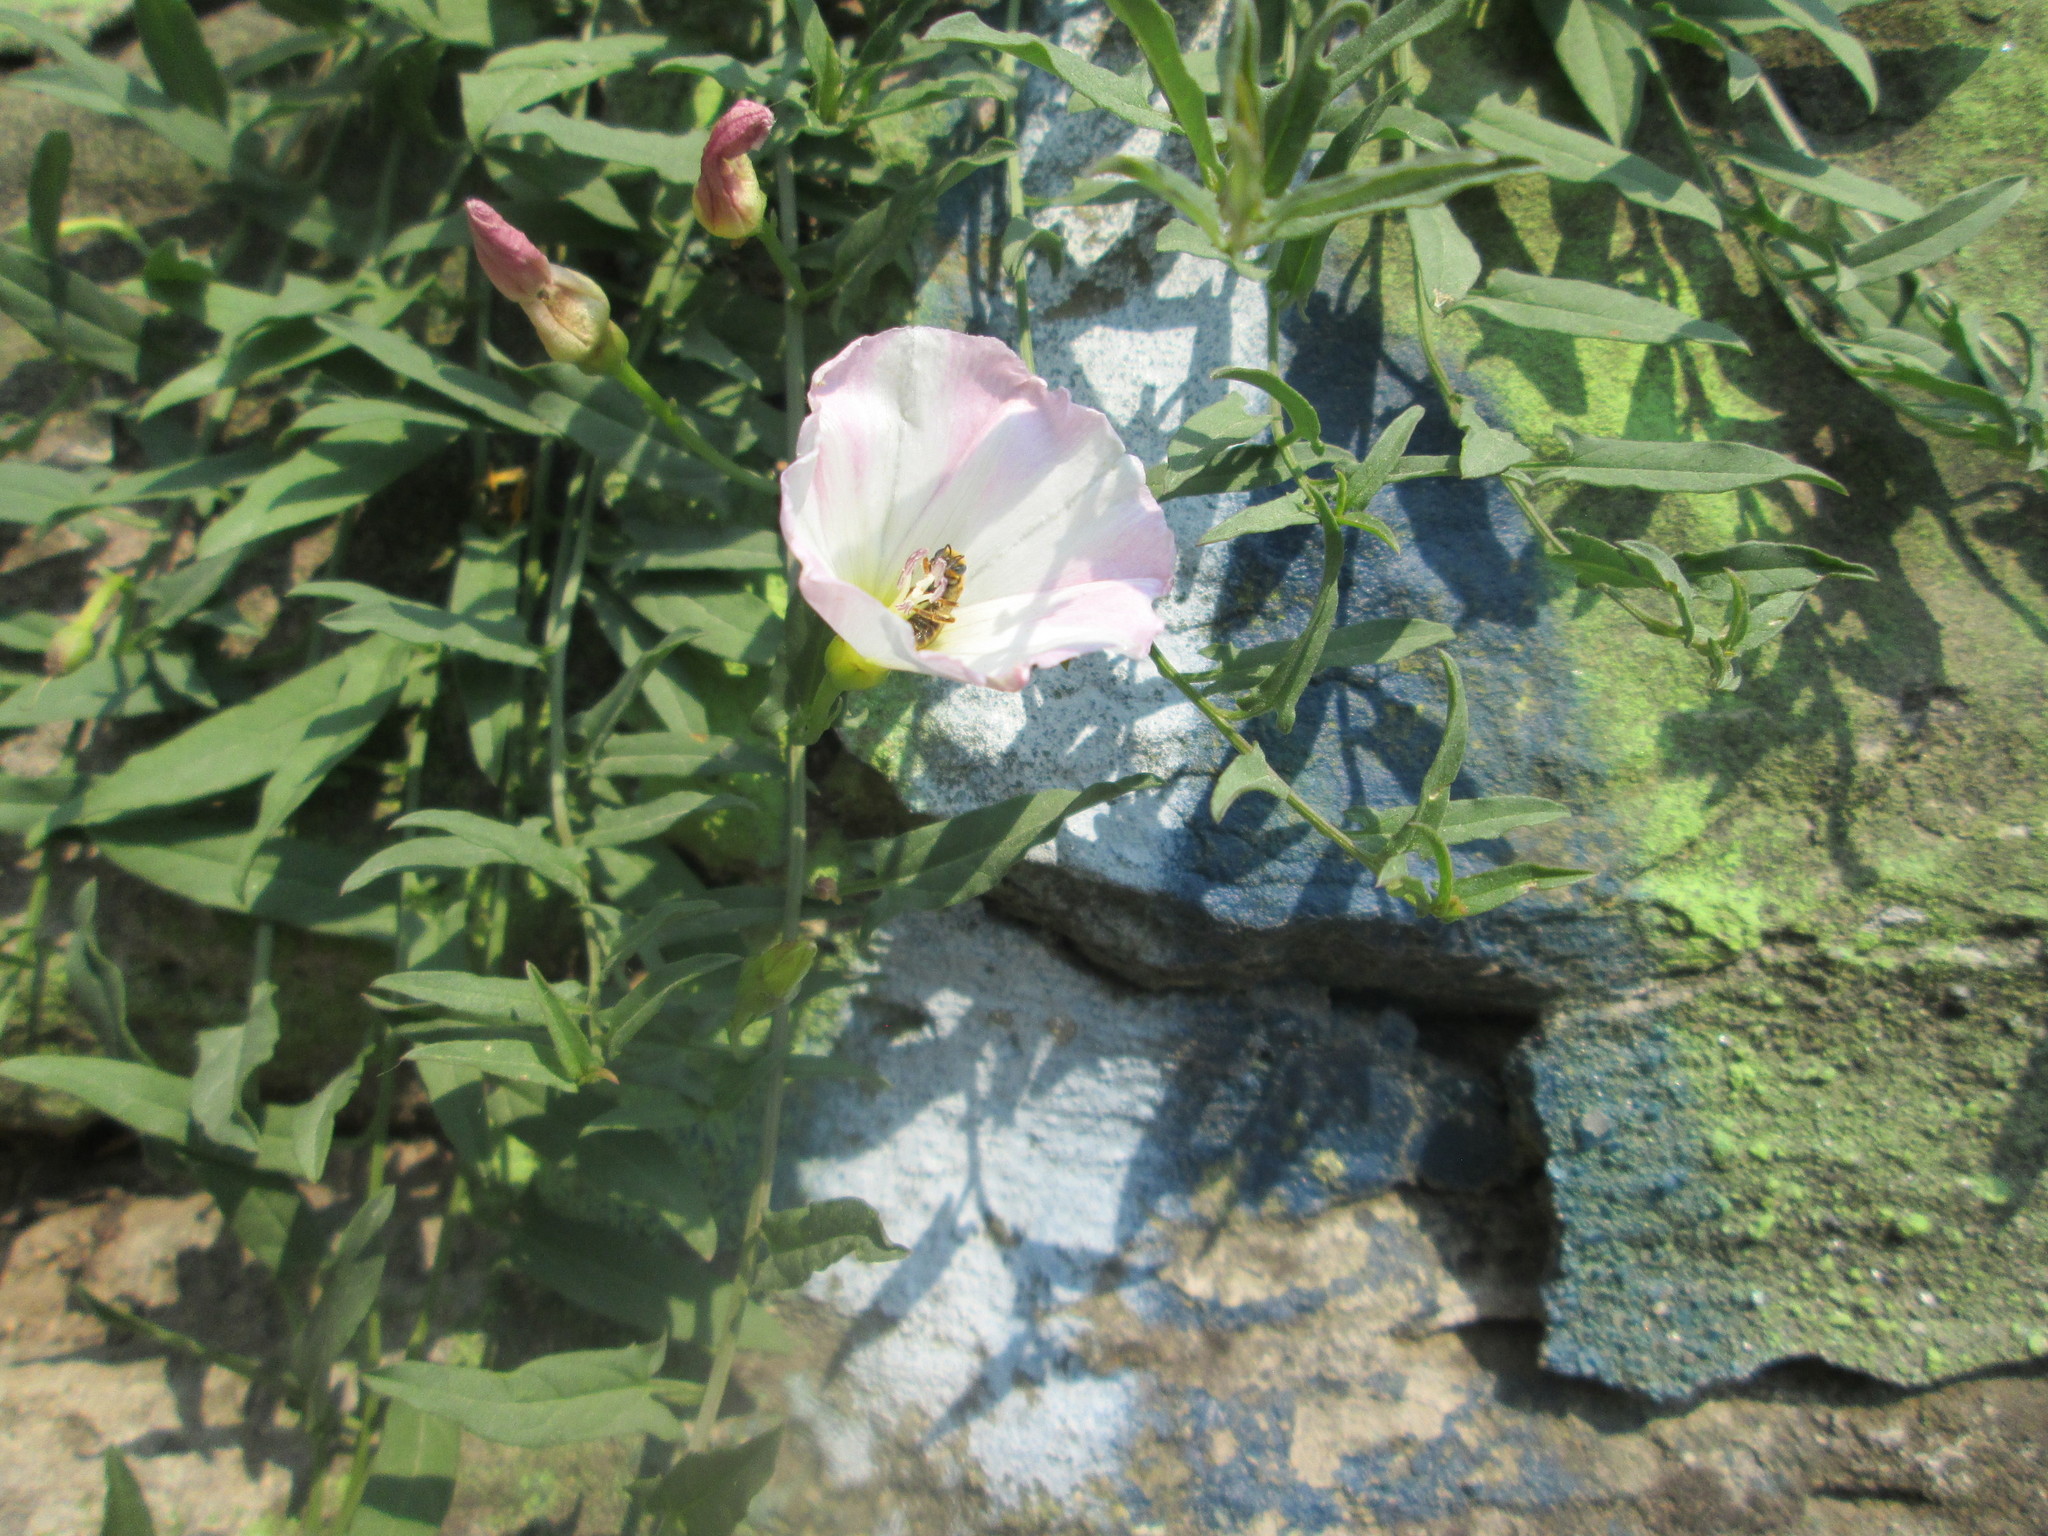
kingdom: Plantae
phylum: Tracheophyta
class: Magnoliopsida
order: Solanales
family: Convolvulaceae
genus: Convolvulus
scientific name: Convolvulus arvensis
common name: Field bindweed
